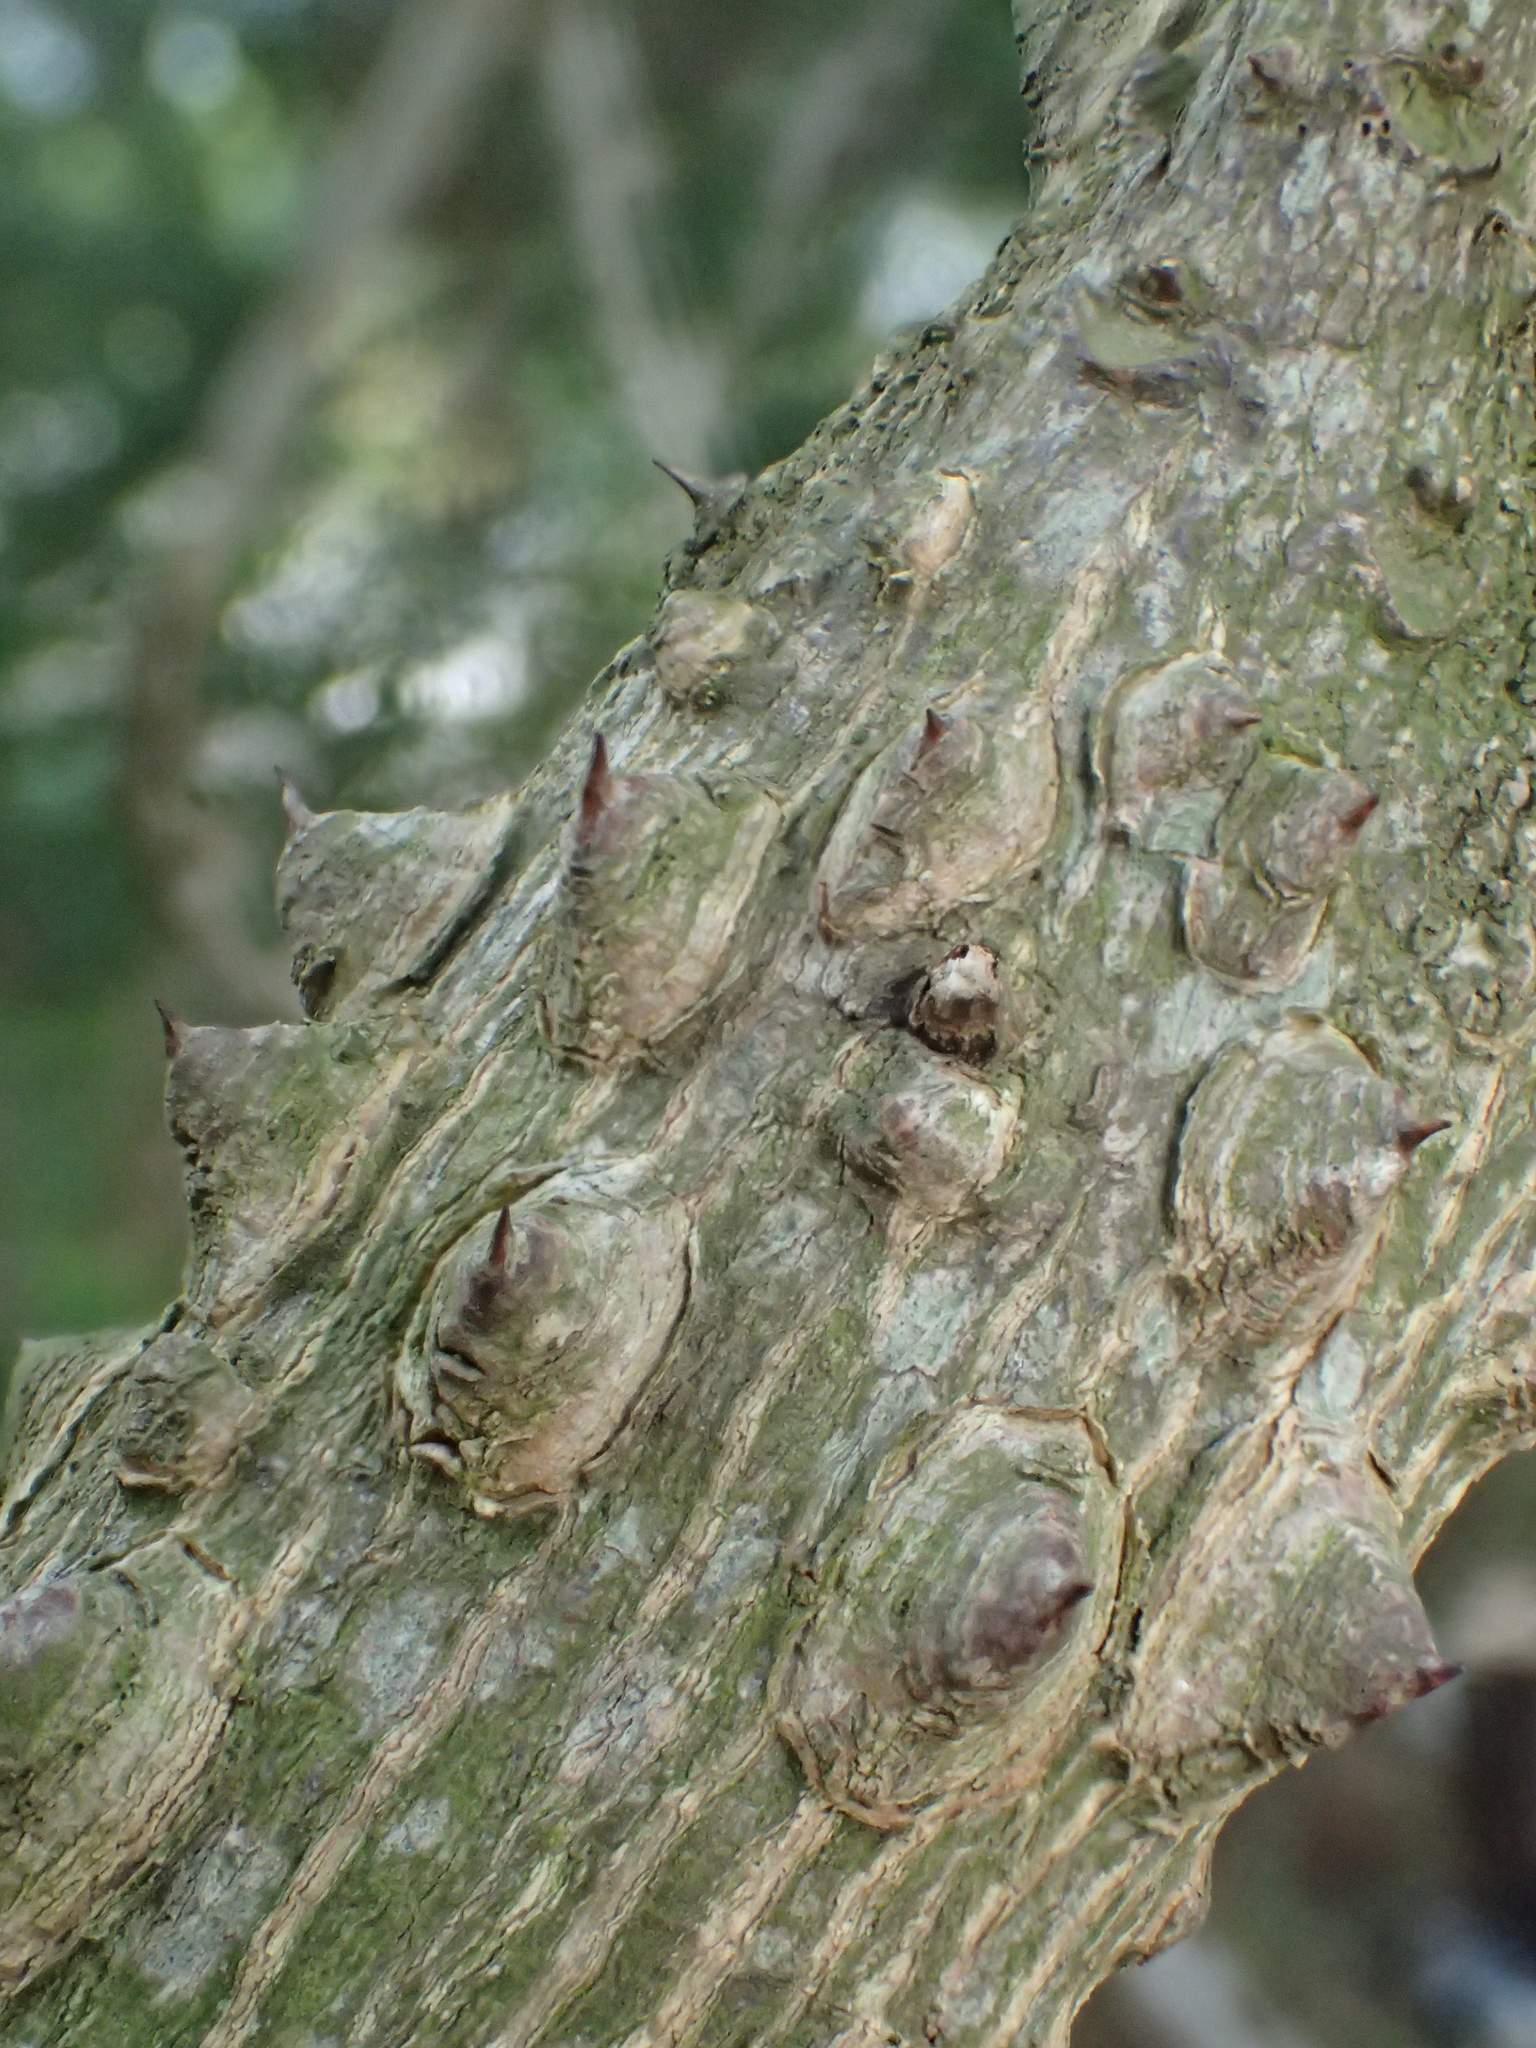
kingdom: Plantae
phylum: Tracheophyta
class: Magnoliopsida
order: Sapindales
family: Rutaceae
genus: Zanthoxylum
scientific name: Zanthoxylum avicennae
